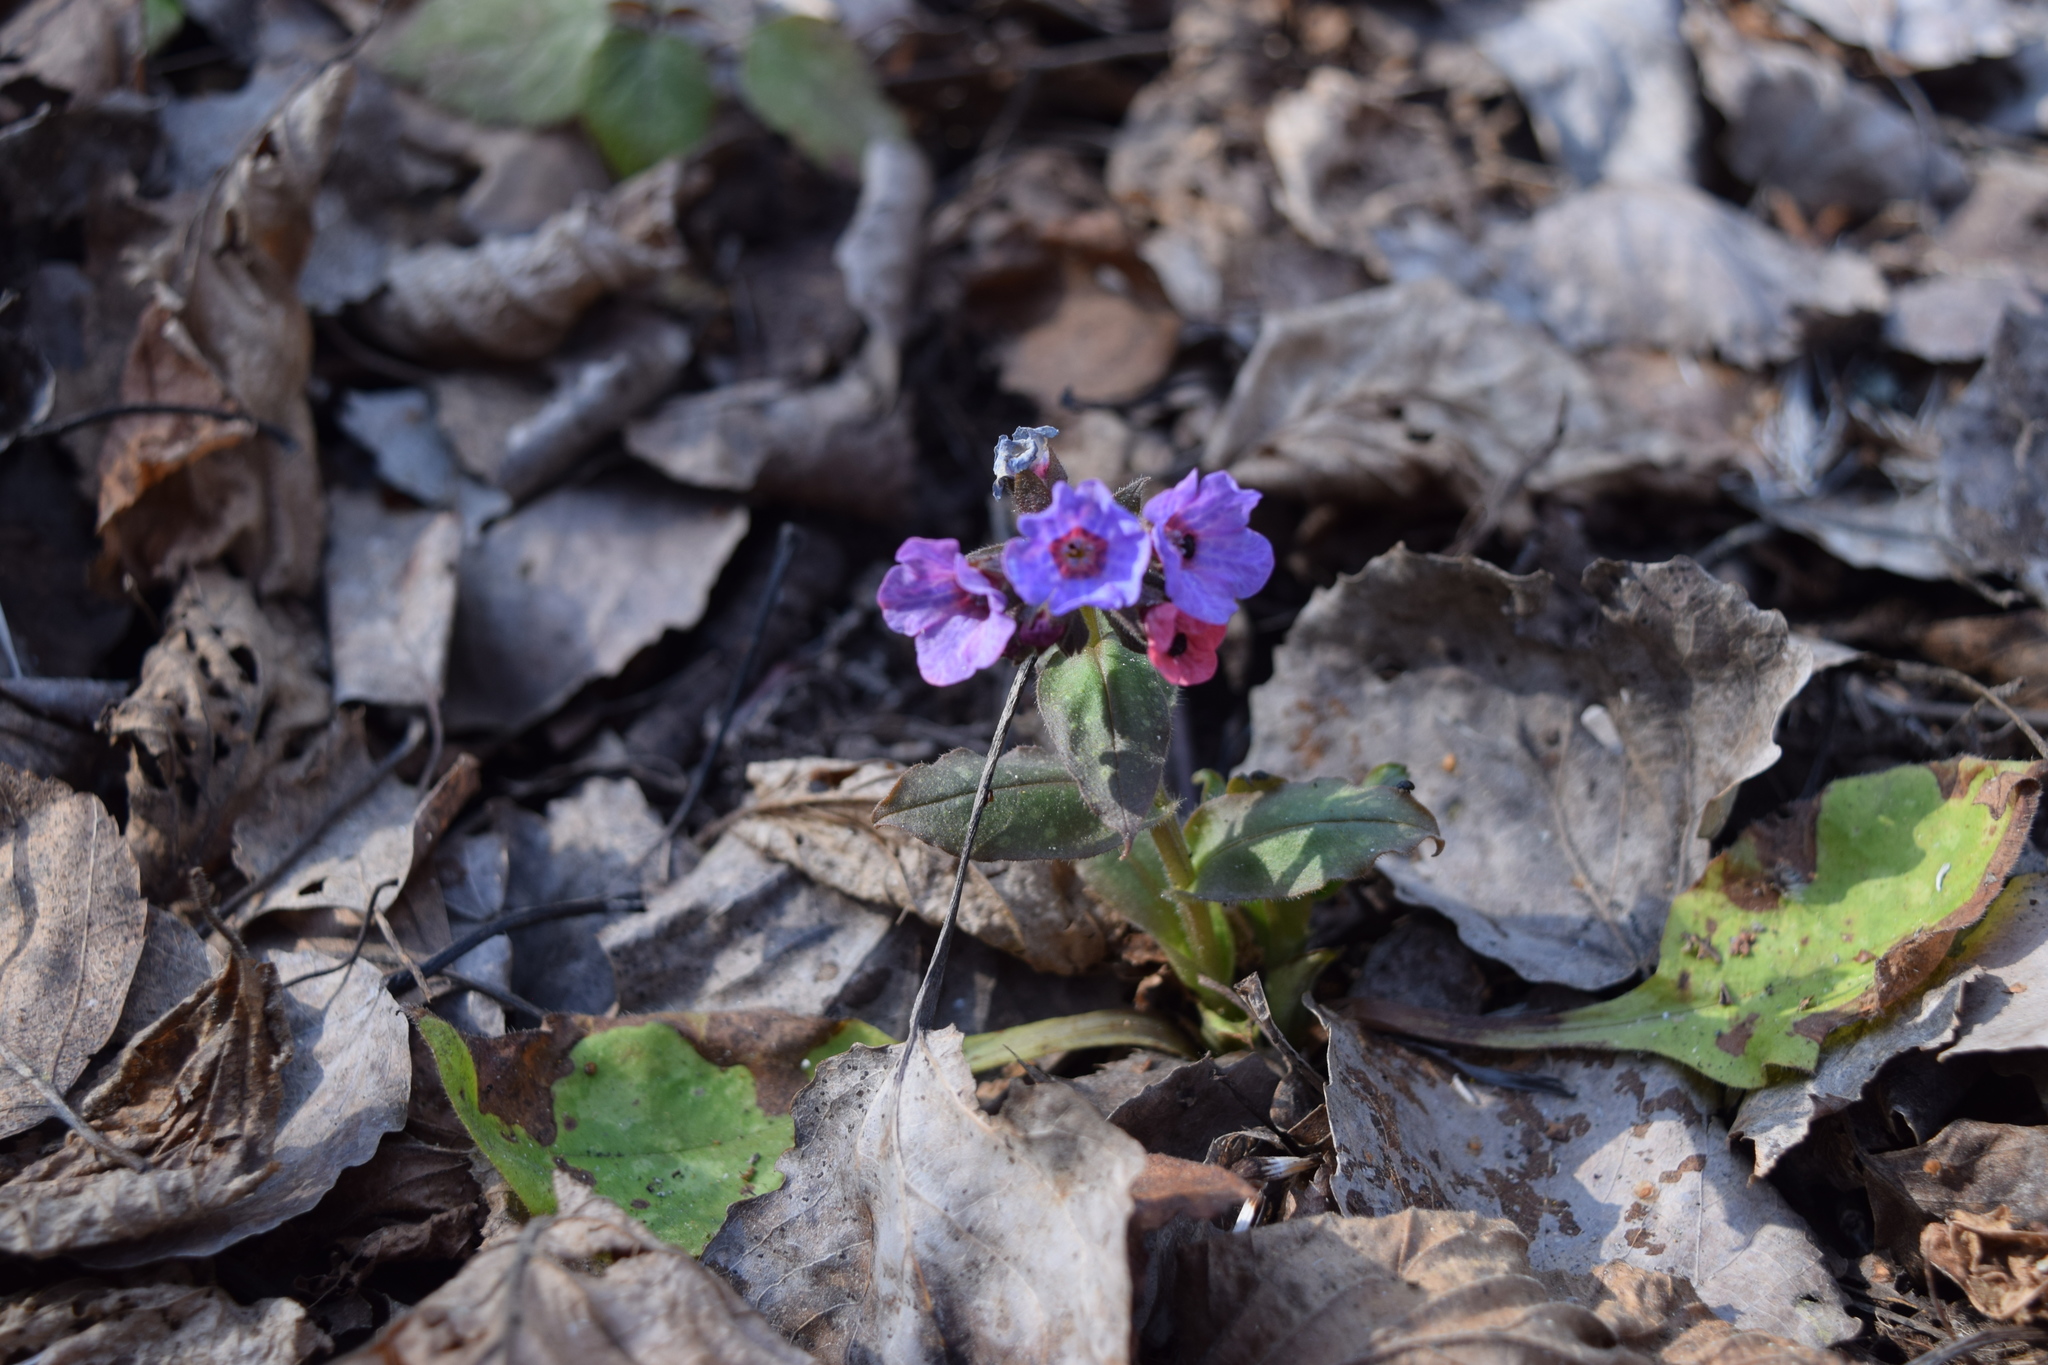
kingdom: Plantae
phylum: Tracheophyta
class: Magnoliopsida
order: Boraginales
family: Boraginaceae
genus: Pulmonaria
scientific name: Pulmonaria obscura
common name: Suffolk lungwort
